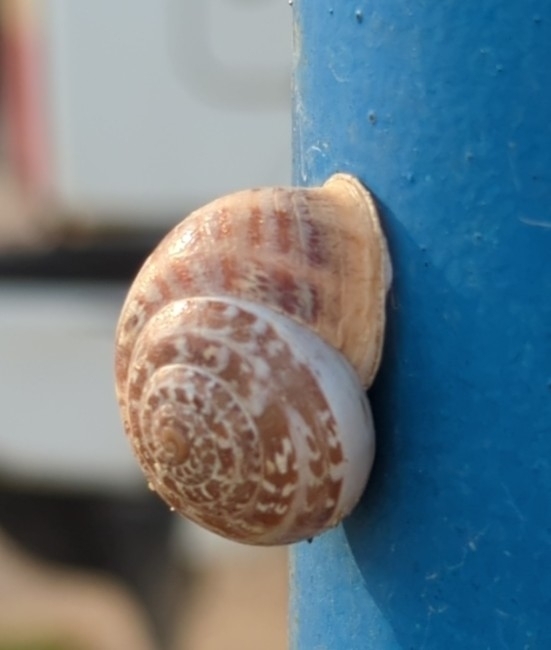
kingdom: Animalia
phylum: Mollusca
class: Gastropoda
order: Stylommatophora
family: Helicidae
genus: Eobania
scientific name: Eobania vermiculata
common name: Chocolateband snail
